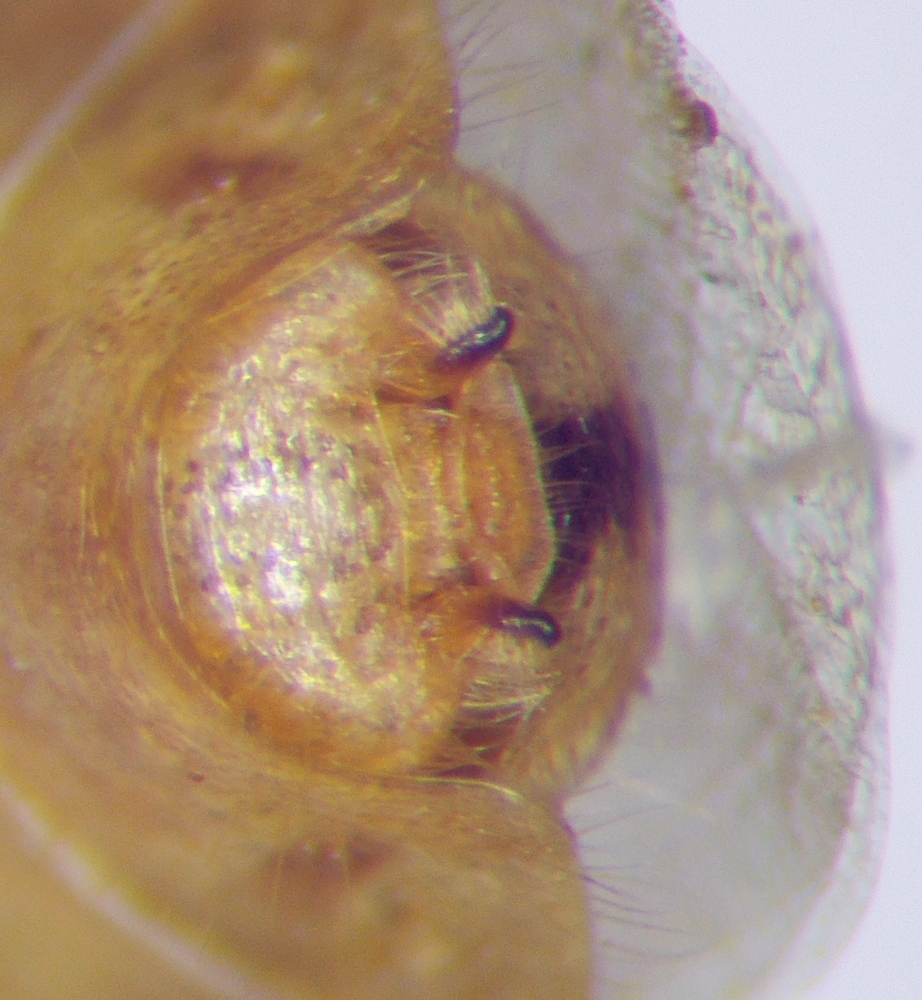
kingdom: Animalia
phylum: Arthropoda
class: Insecta
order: Hemiptera
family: Rhopalidae
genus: Rhopalus
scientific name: Rhopalus parumpunctatus
